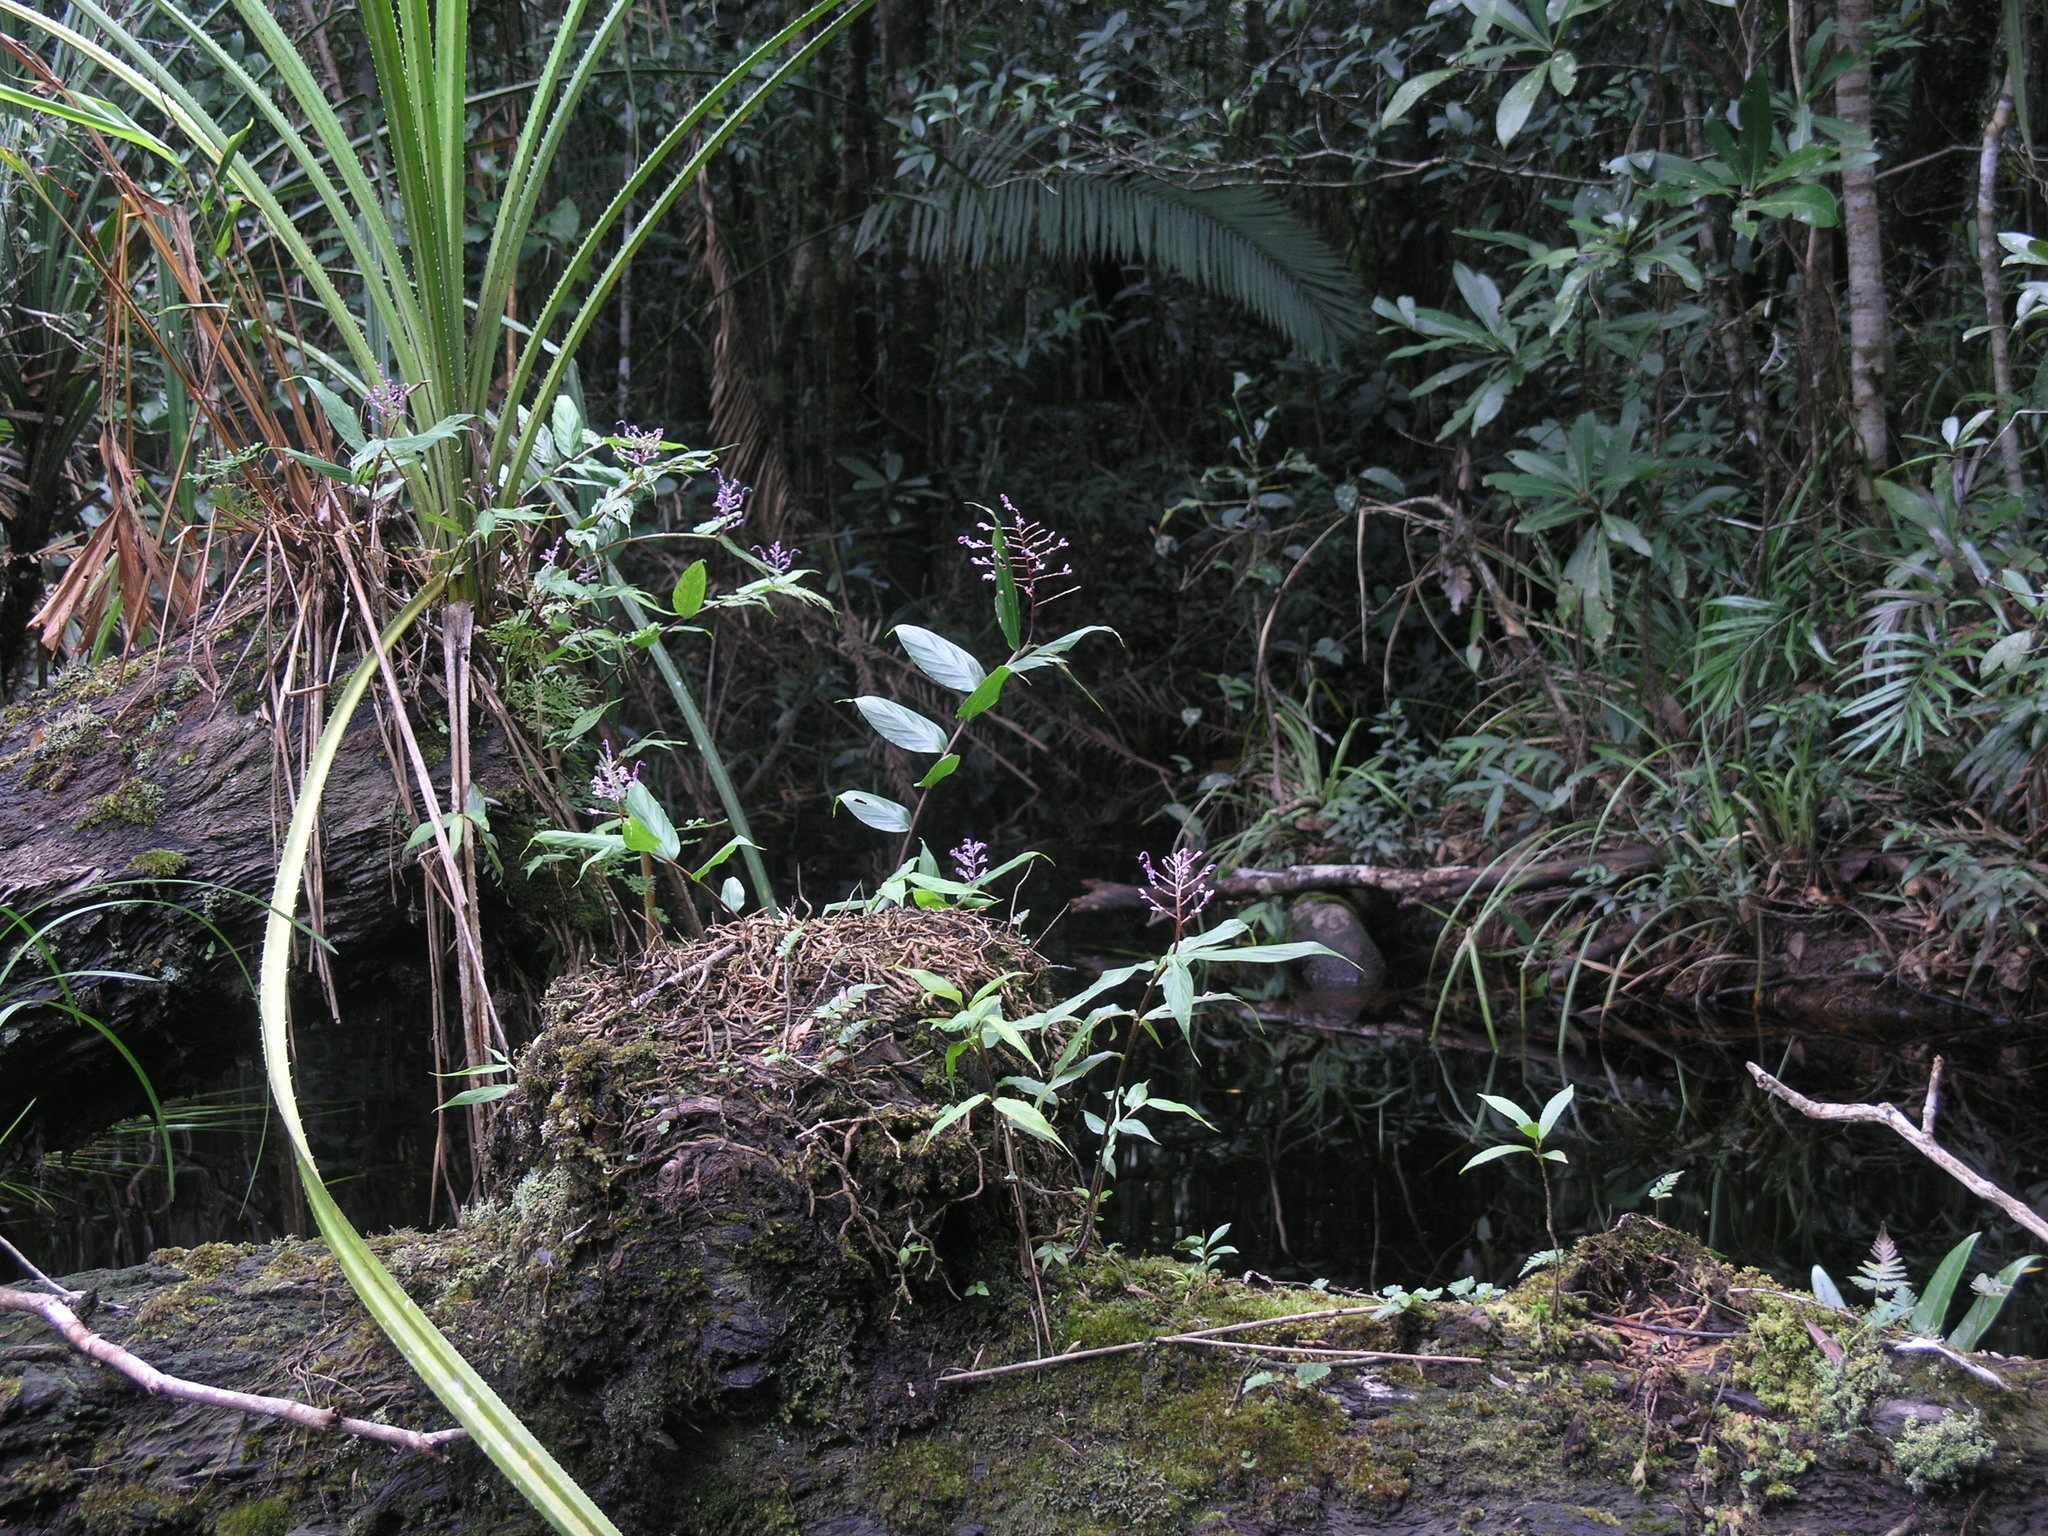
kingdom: Plantae
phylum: Tracheophyta
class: Liliopsida
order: Zingiberales
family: Zingiberaceae
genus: Globba
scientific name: Globba bokorensis
